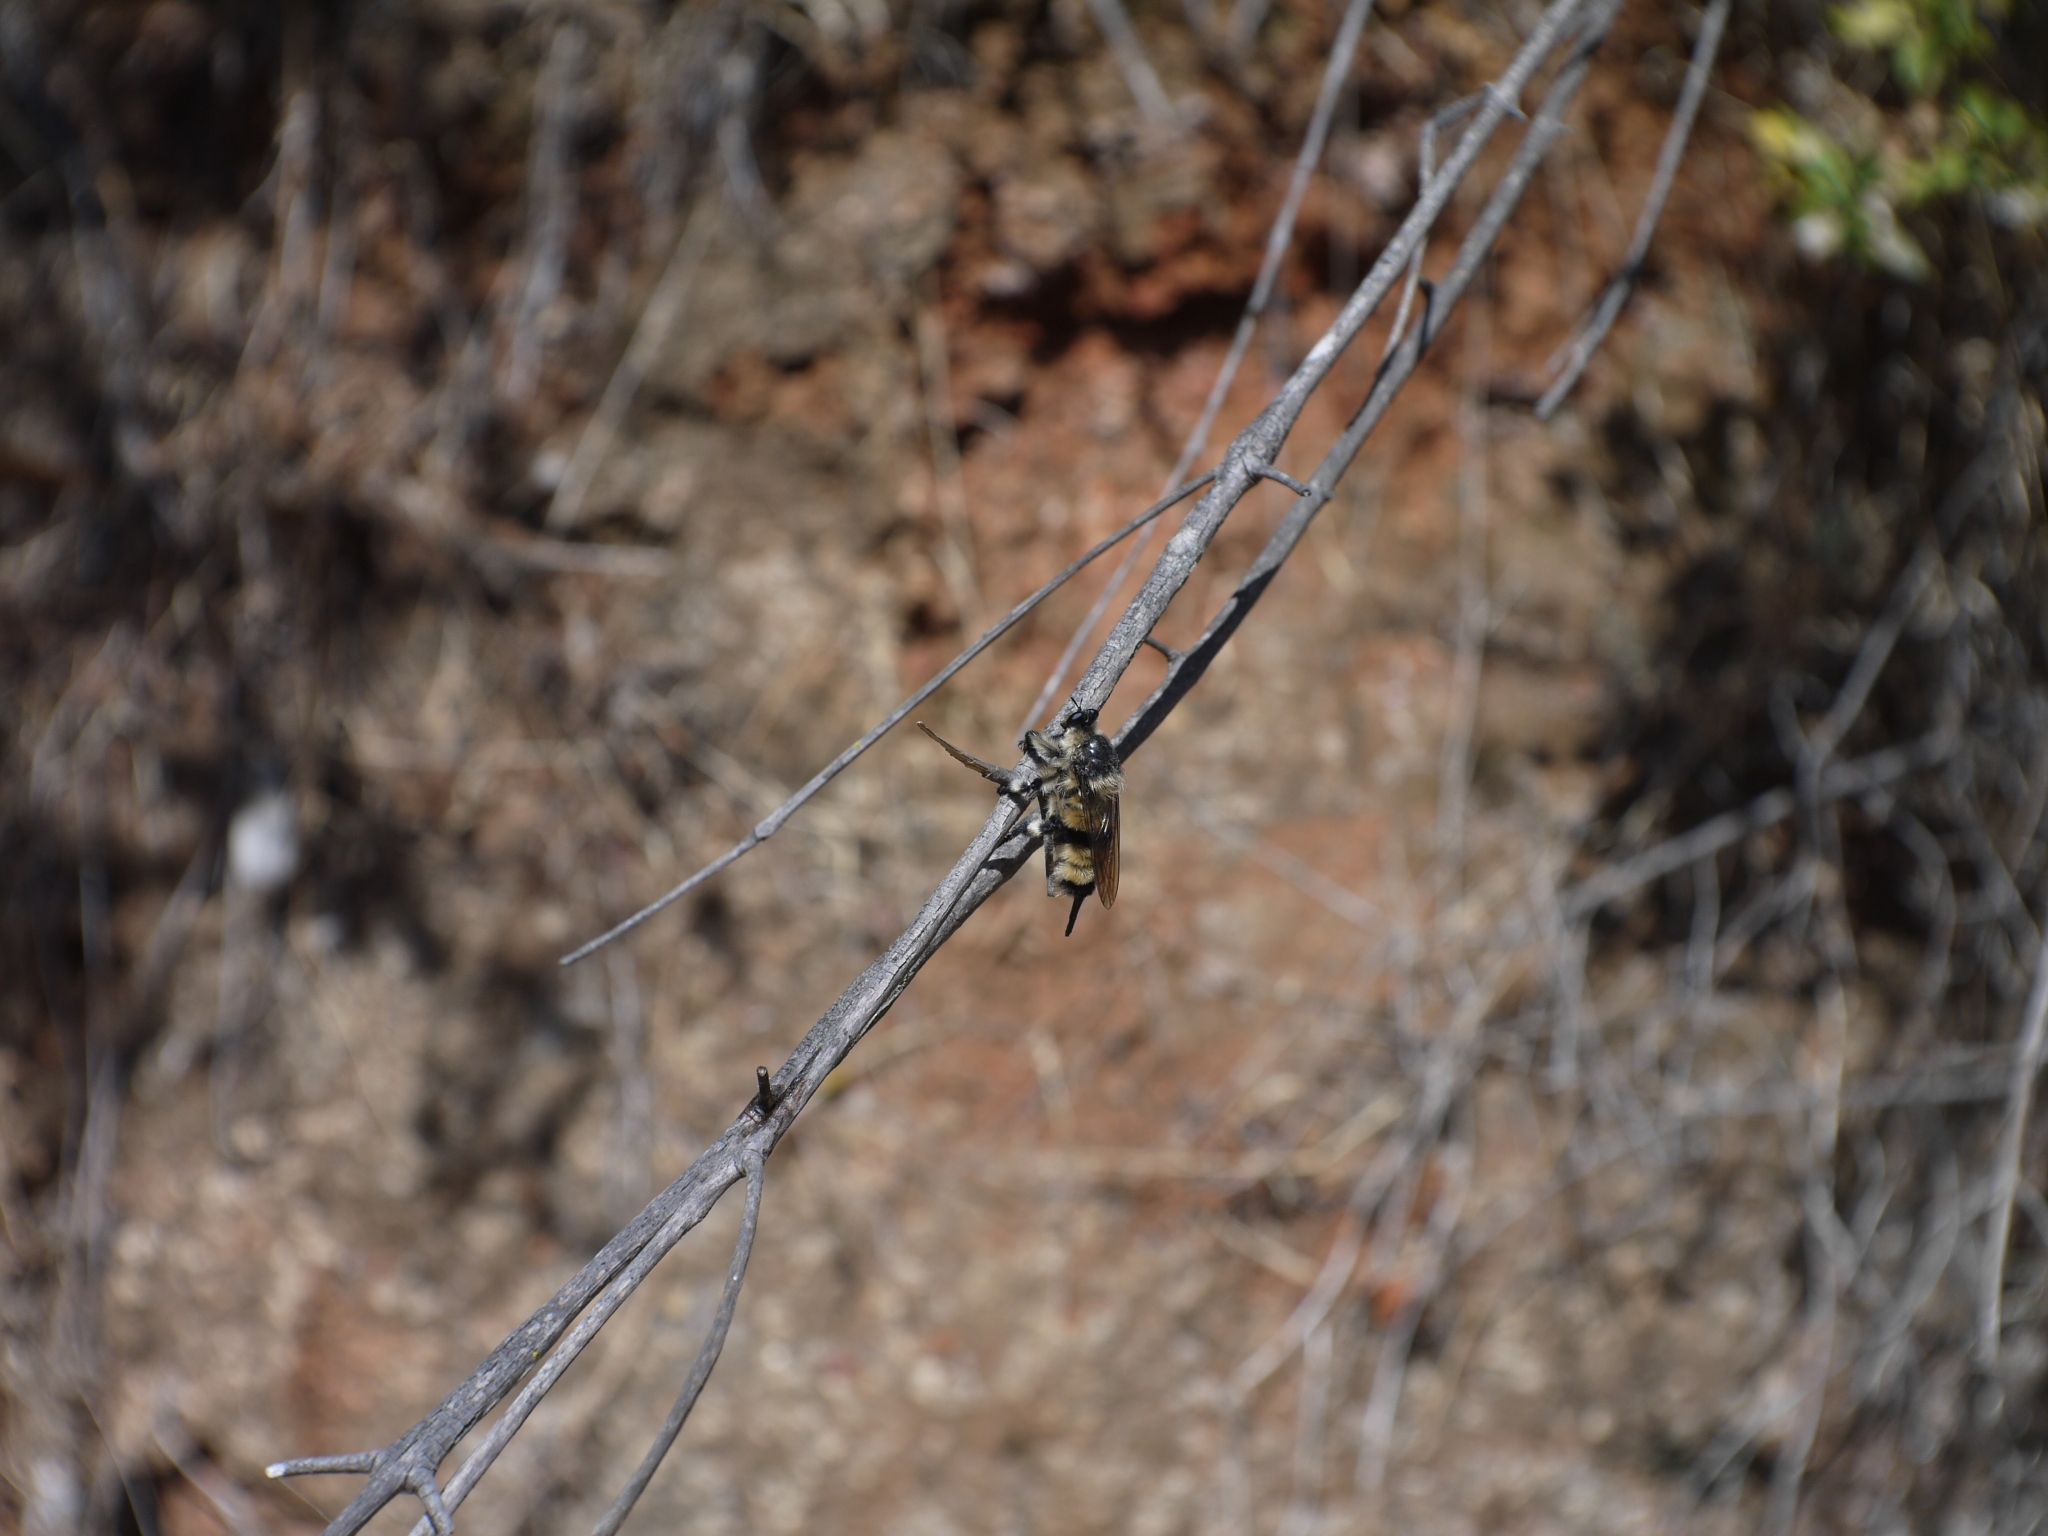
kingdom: Animalia
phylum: Arthropoda
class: Insecta
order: Diptera
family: Asilidae
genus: Obelophorus
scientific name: Obelophorus terebratus
